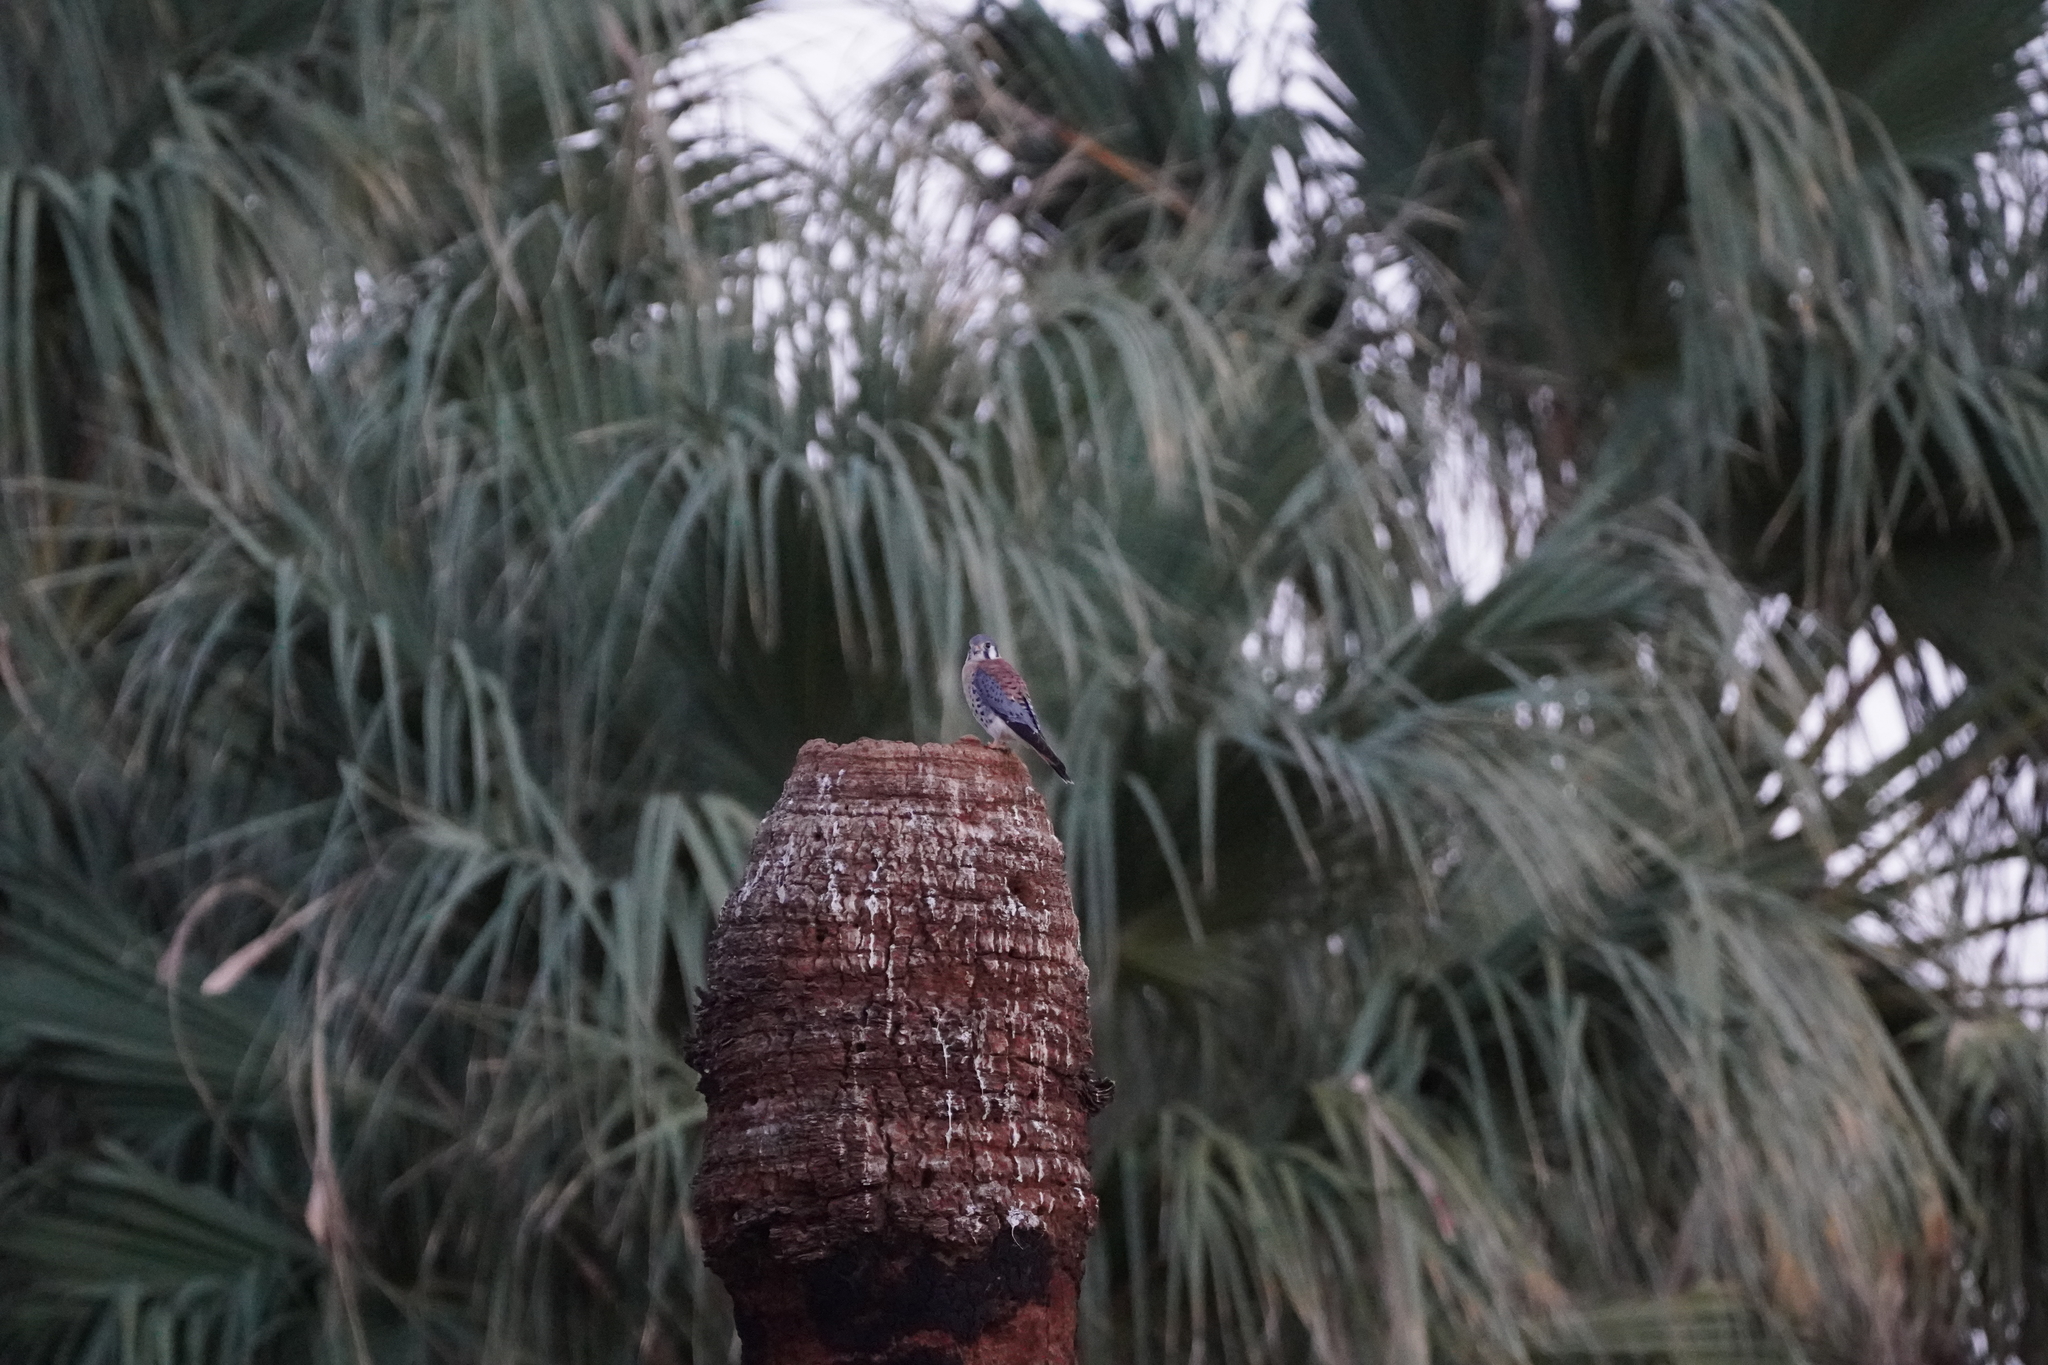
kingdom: Animalia
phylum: Chordata
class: Aves
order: Falconiformes
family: Falconidae
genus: Falco
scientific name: Falco sparverius
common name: American kestrel
